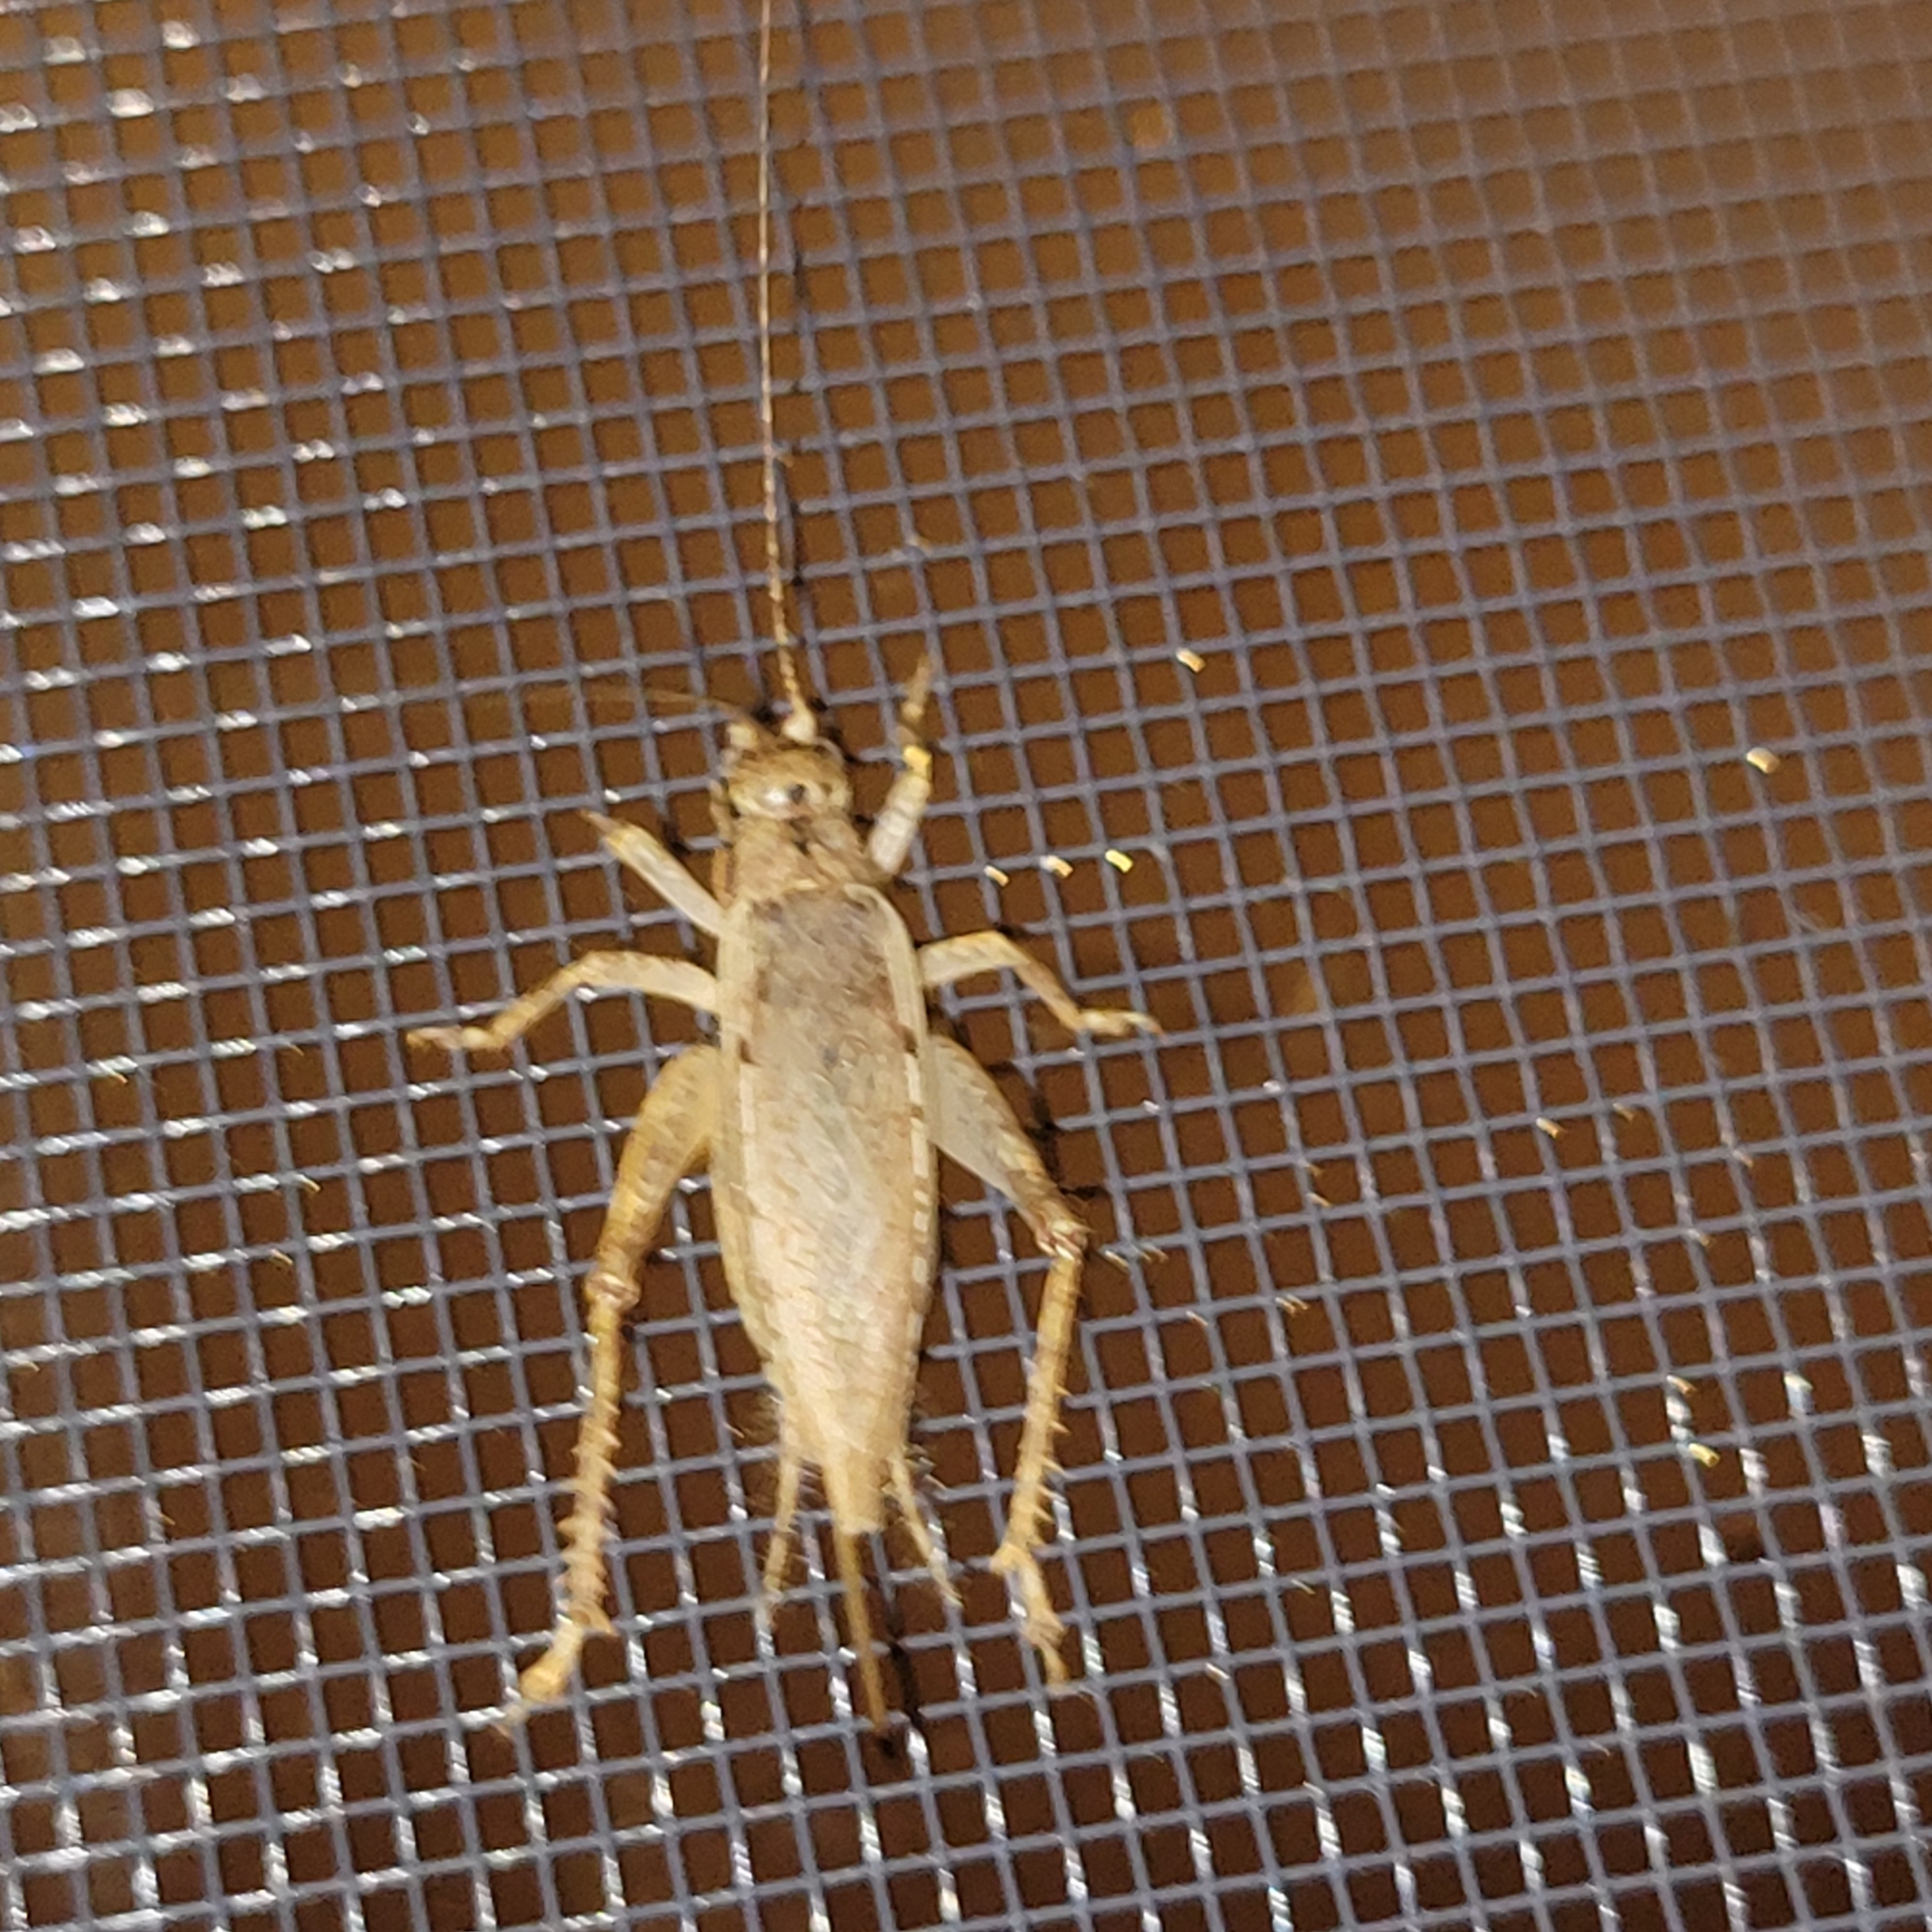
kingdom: Animalia
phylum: Arthropoda
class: Insecta
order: Orthoptera
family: Gryllidae
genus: Hapithus
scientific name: Hapithus saltator
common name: Jumping bush cricket
